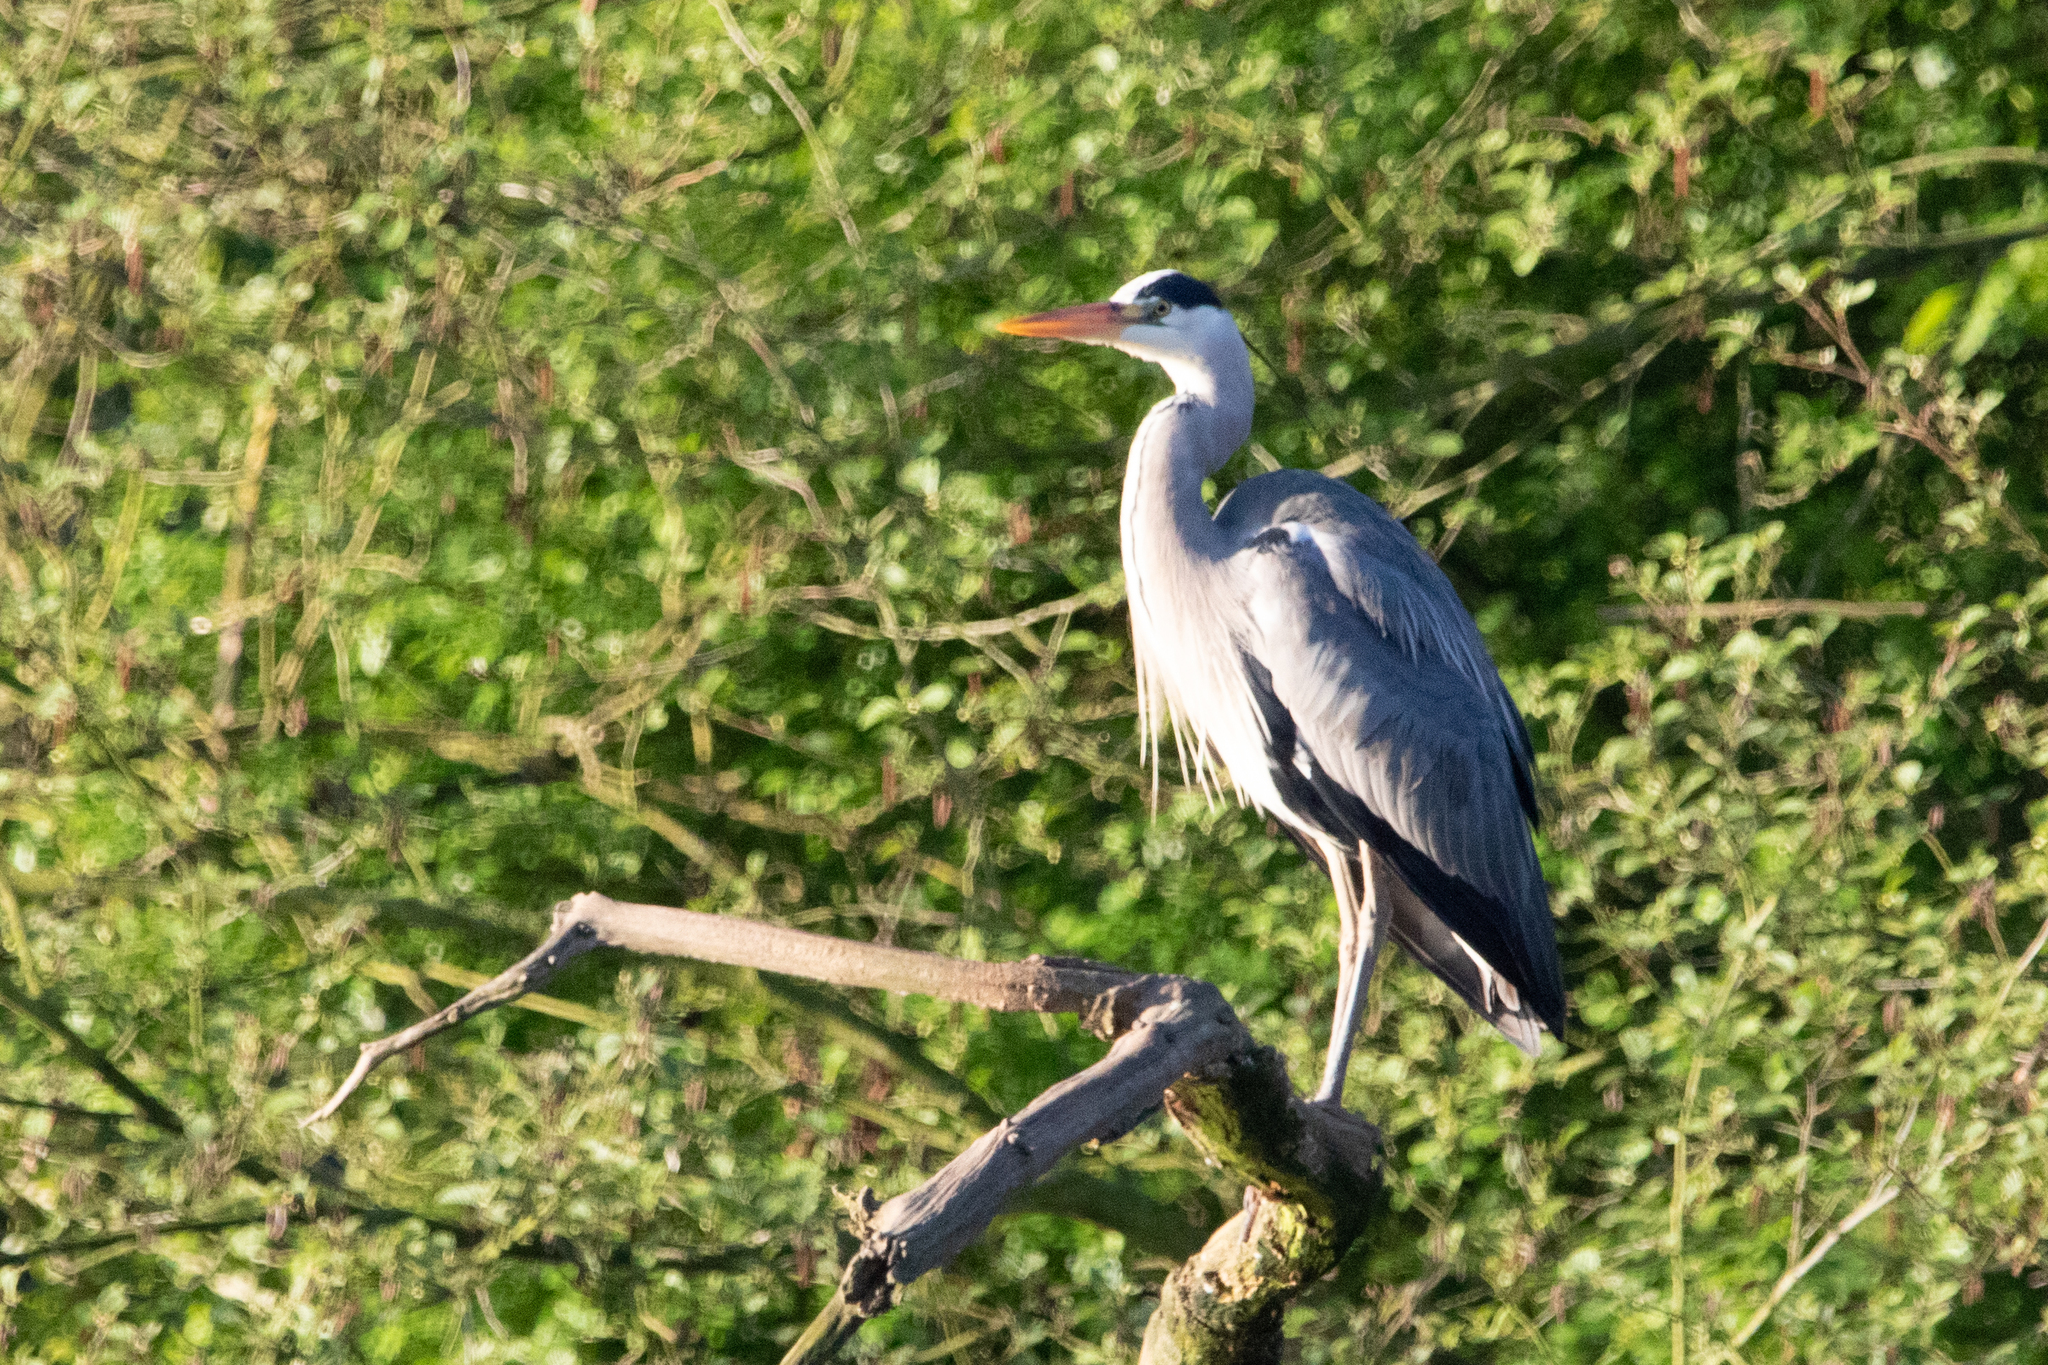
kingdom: Animalia
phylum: Chordata
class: Aves
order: Pelecaniformes
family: Ardeidae
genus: Ardea
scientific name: Ardea cinerea
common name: Grey heron
